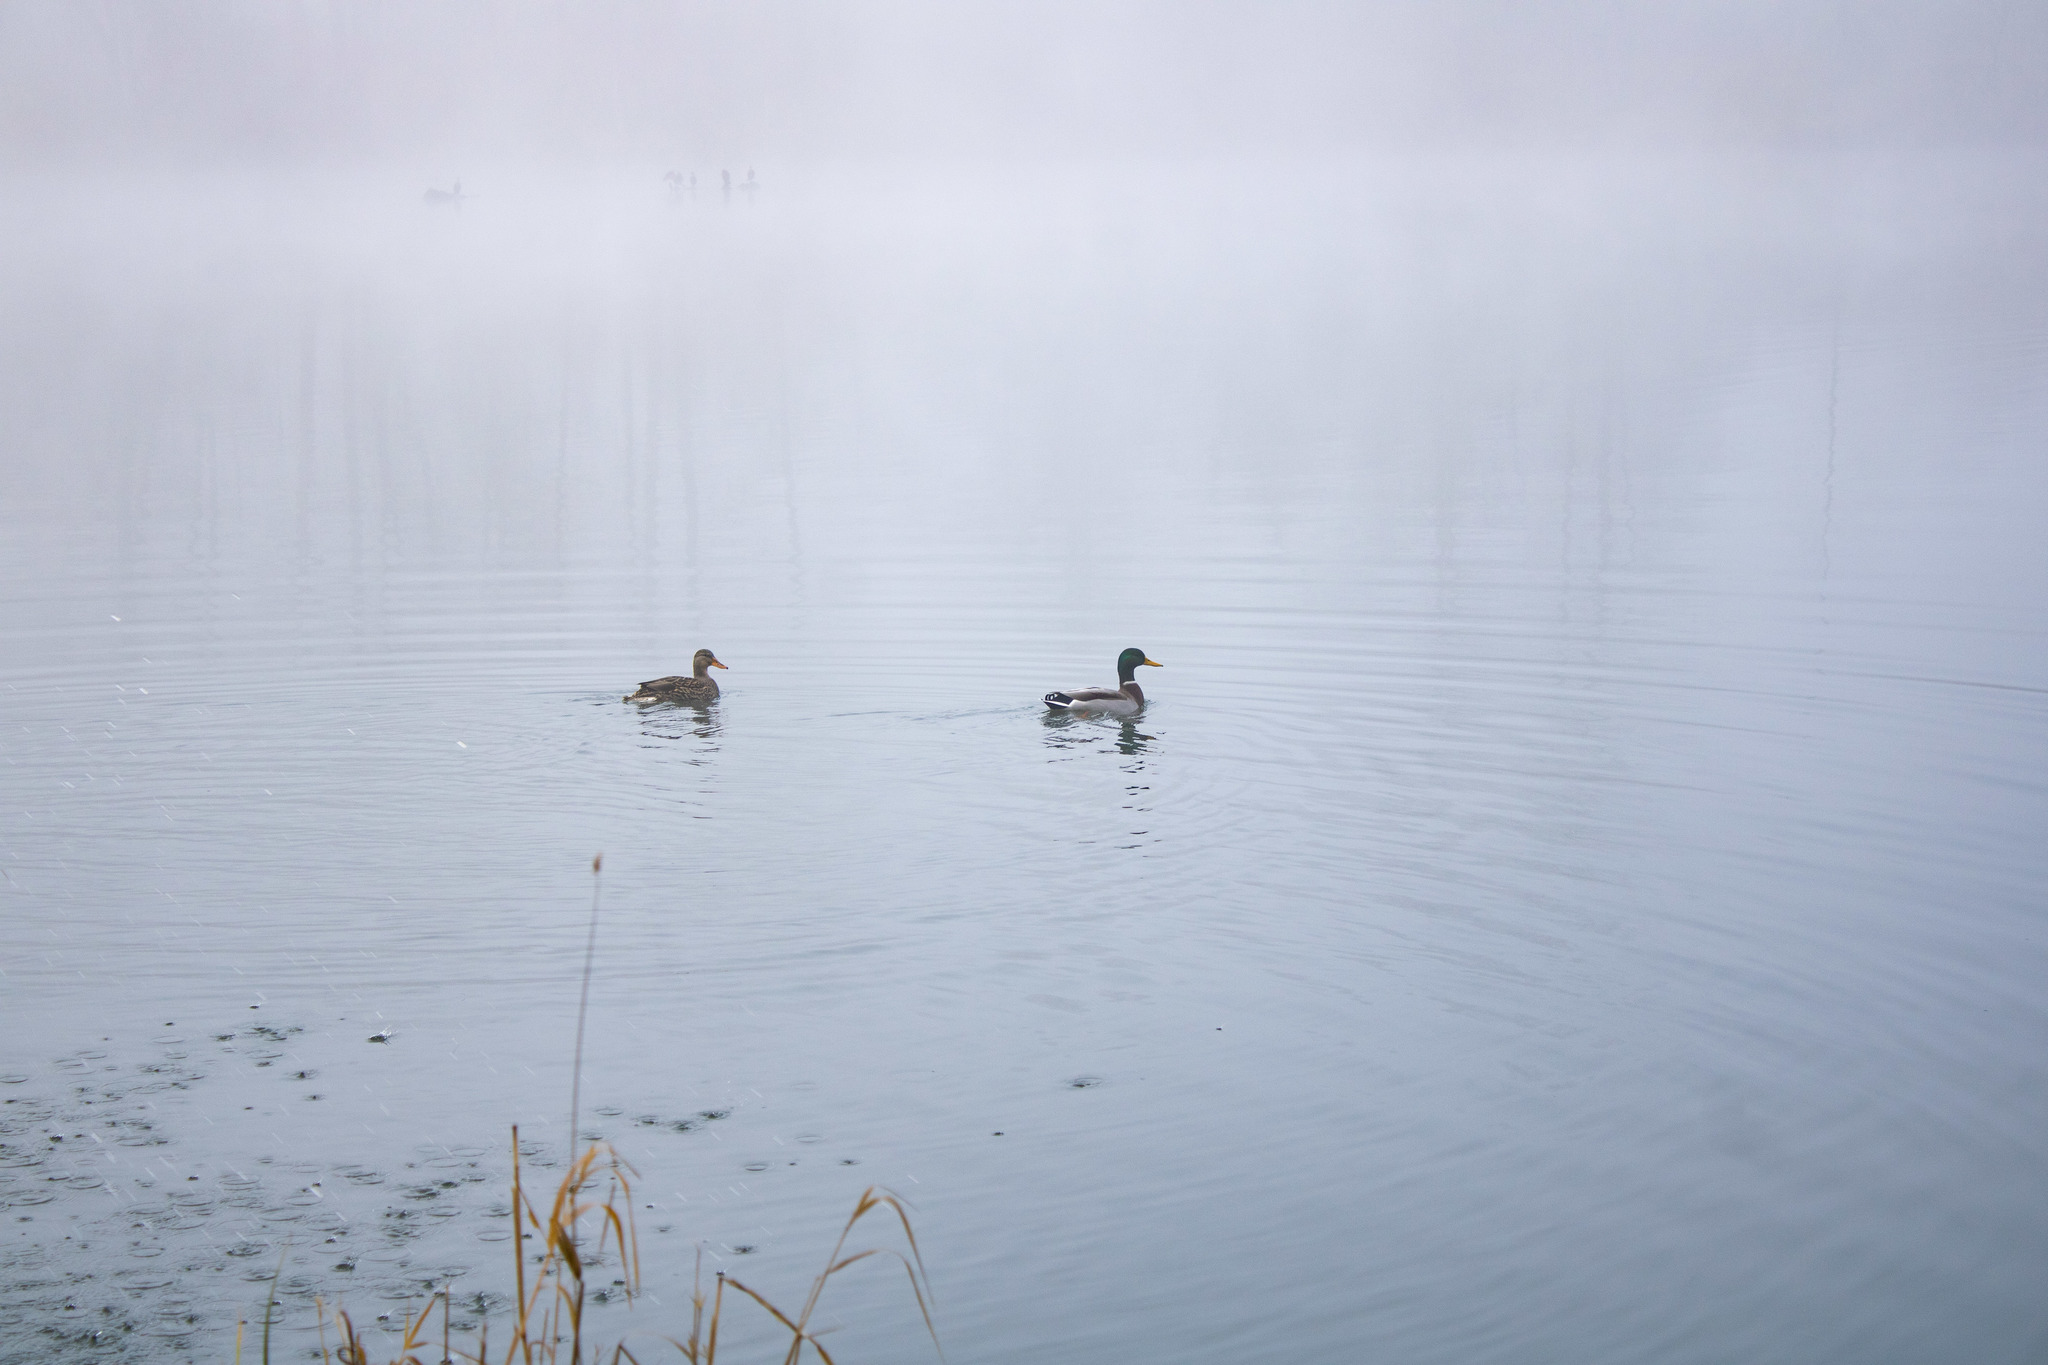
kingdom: Animalia
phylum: Chordata
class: Aves
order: Anseriformes
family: Anatidae
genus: Anas
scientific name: Anas platyrhynchos
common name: Mallard
